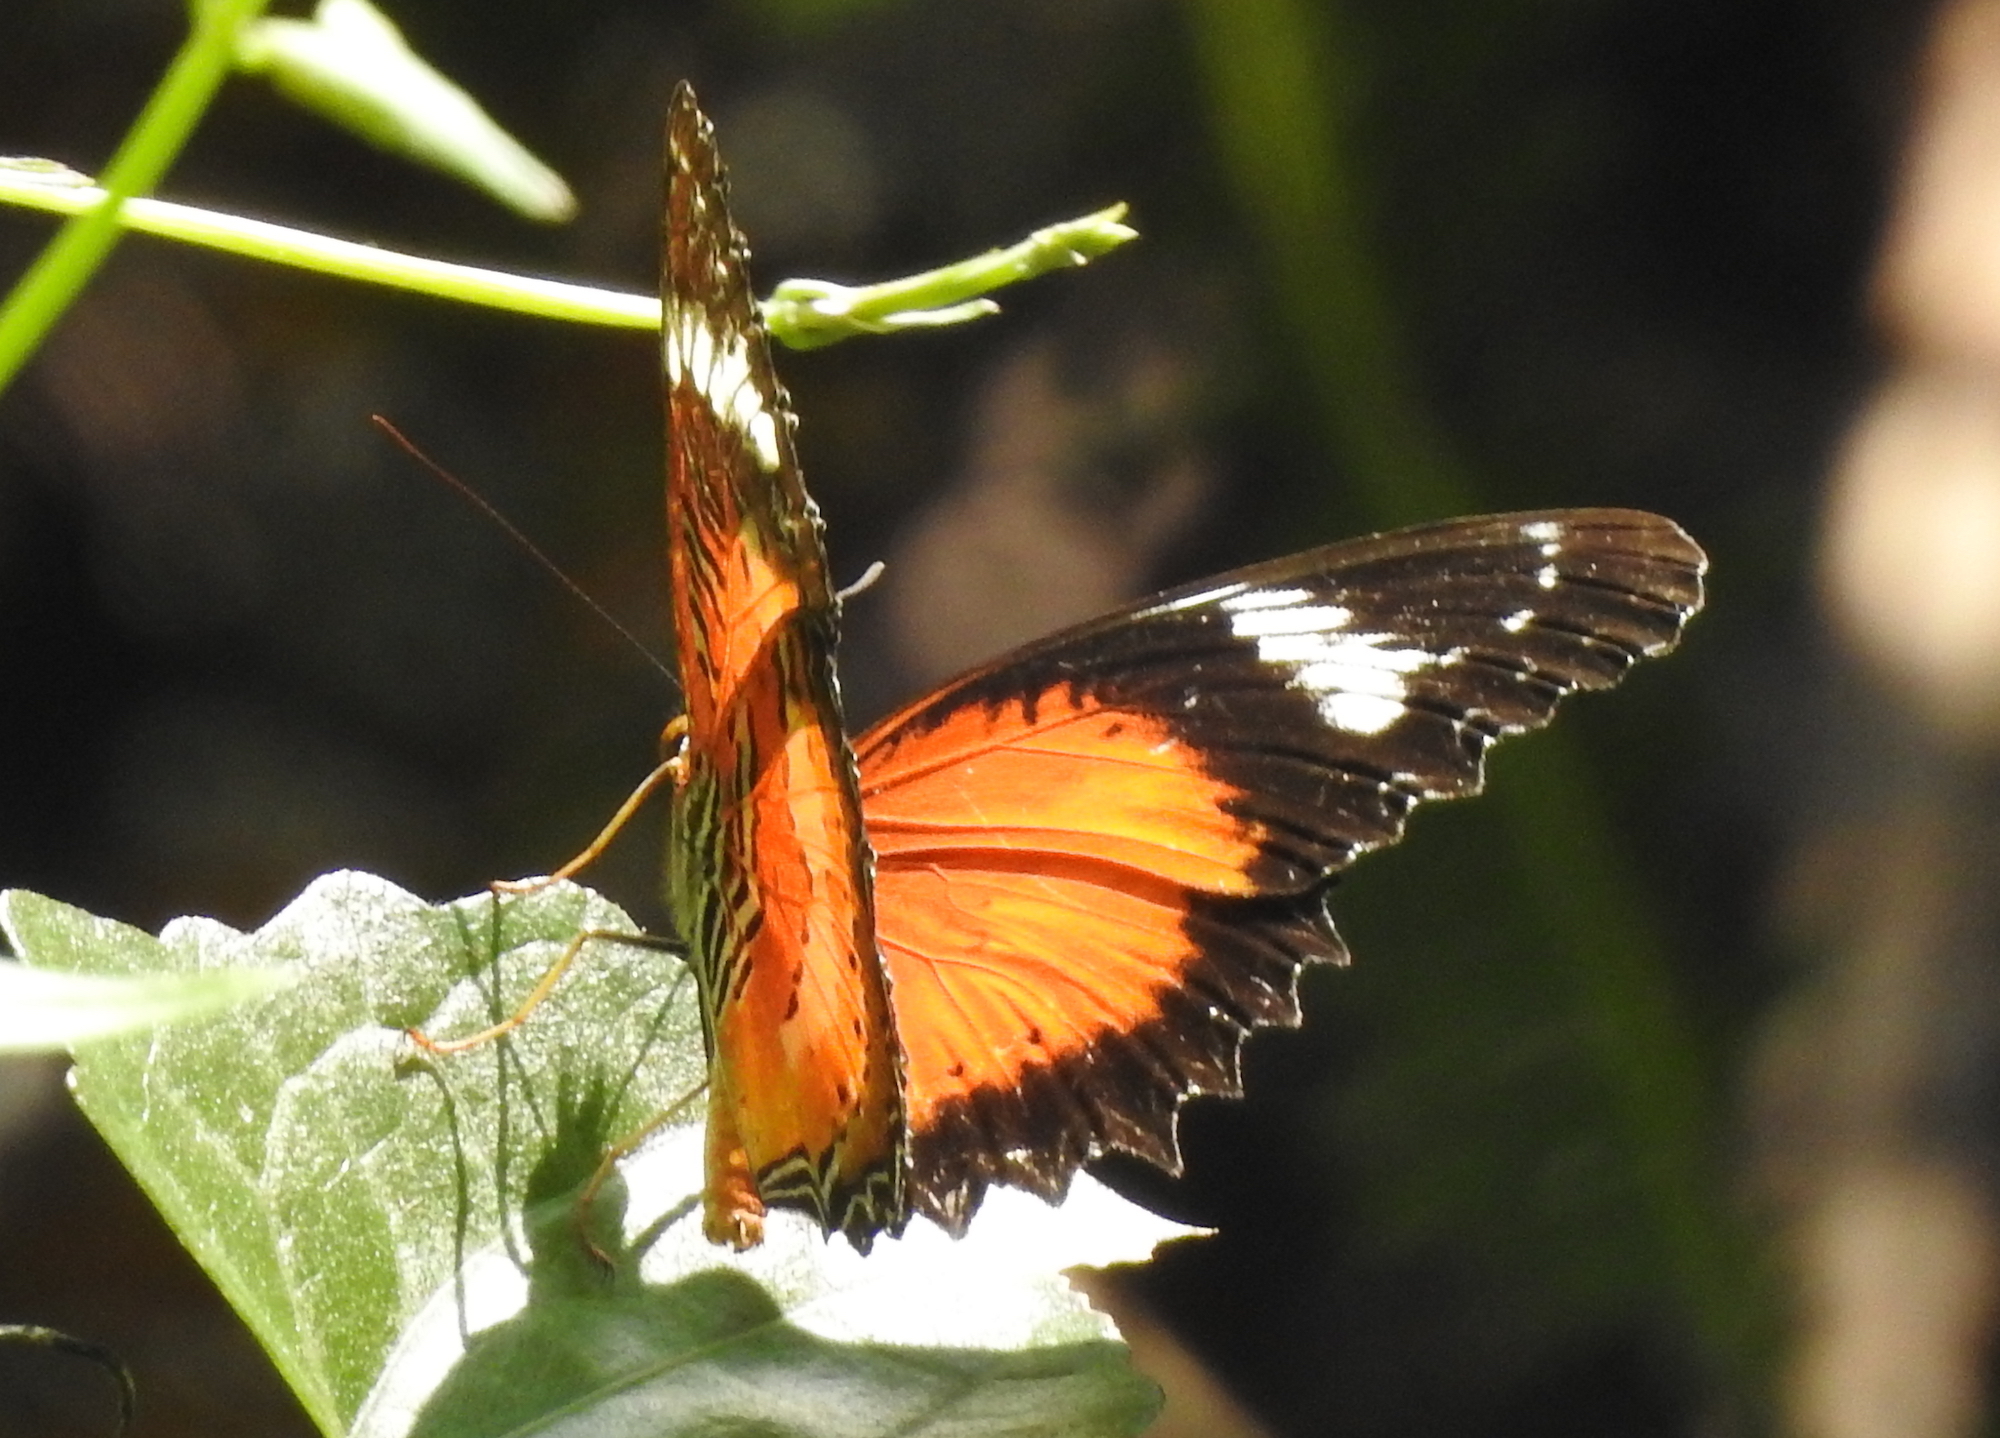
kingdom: Animalia
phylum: Arthropoda
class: Insecta
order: Lepidoptera
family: Nymphalidae
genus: Cethosia
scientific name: Cethosia penthesilea
